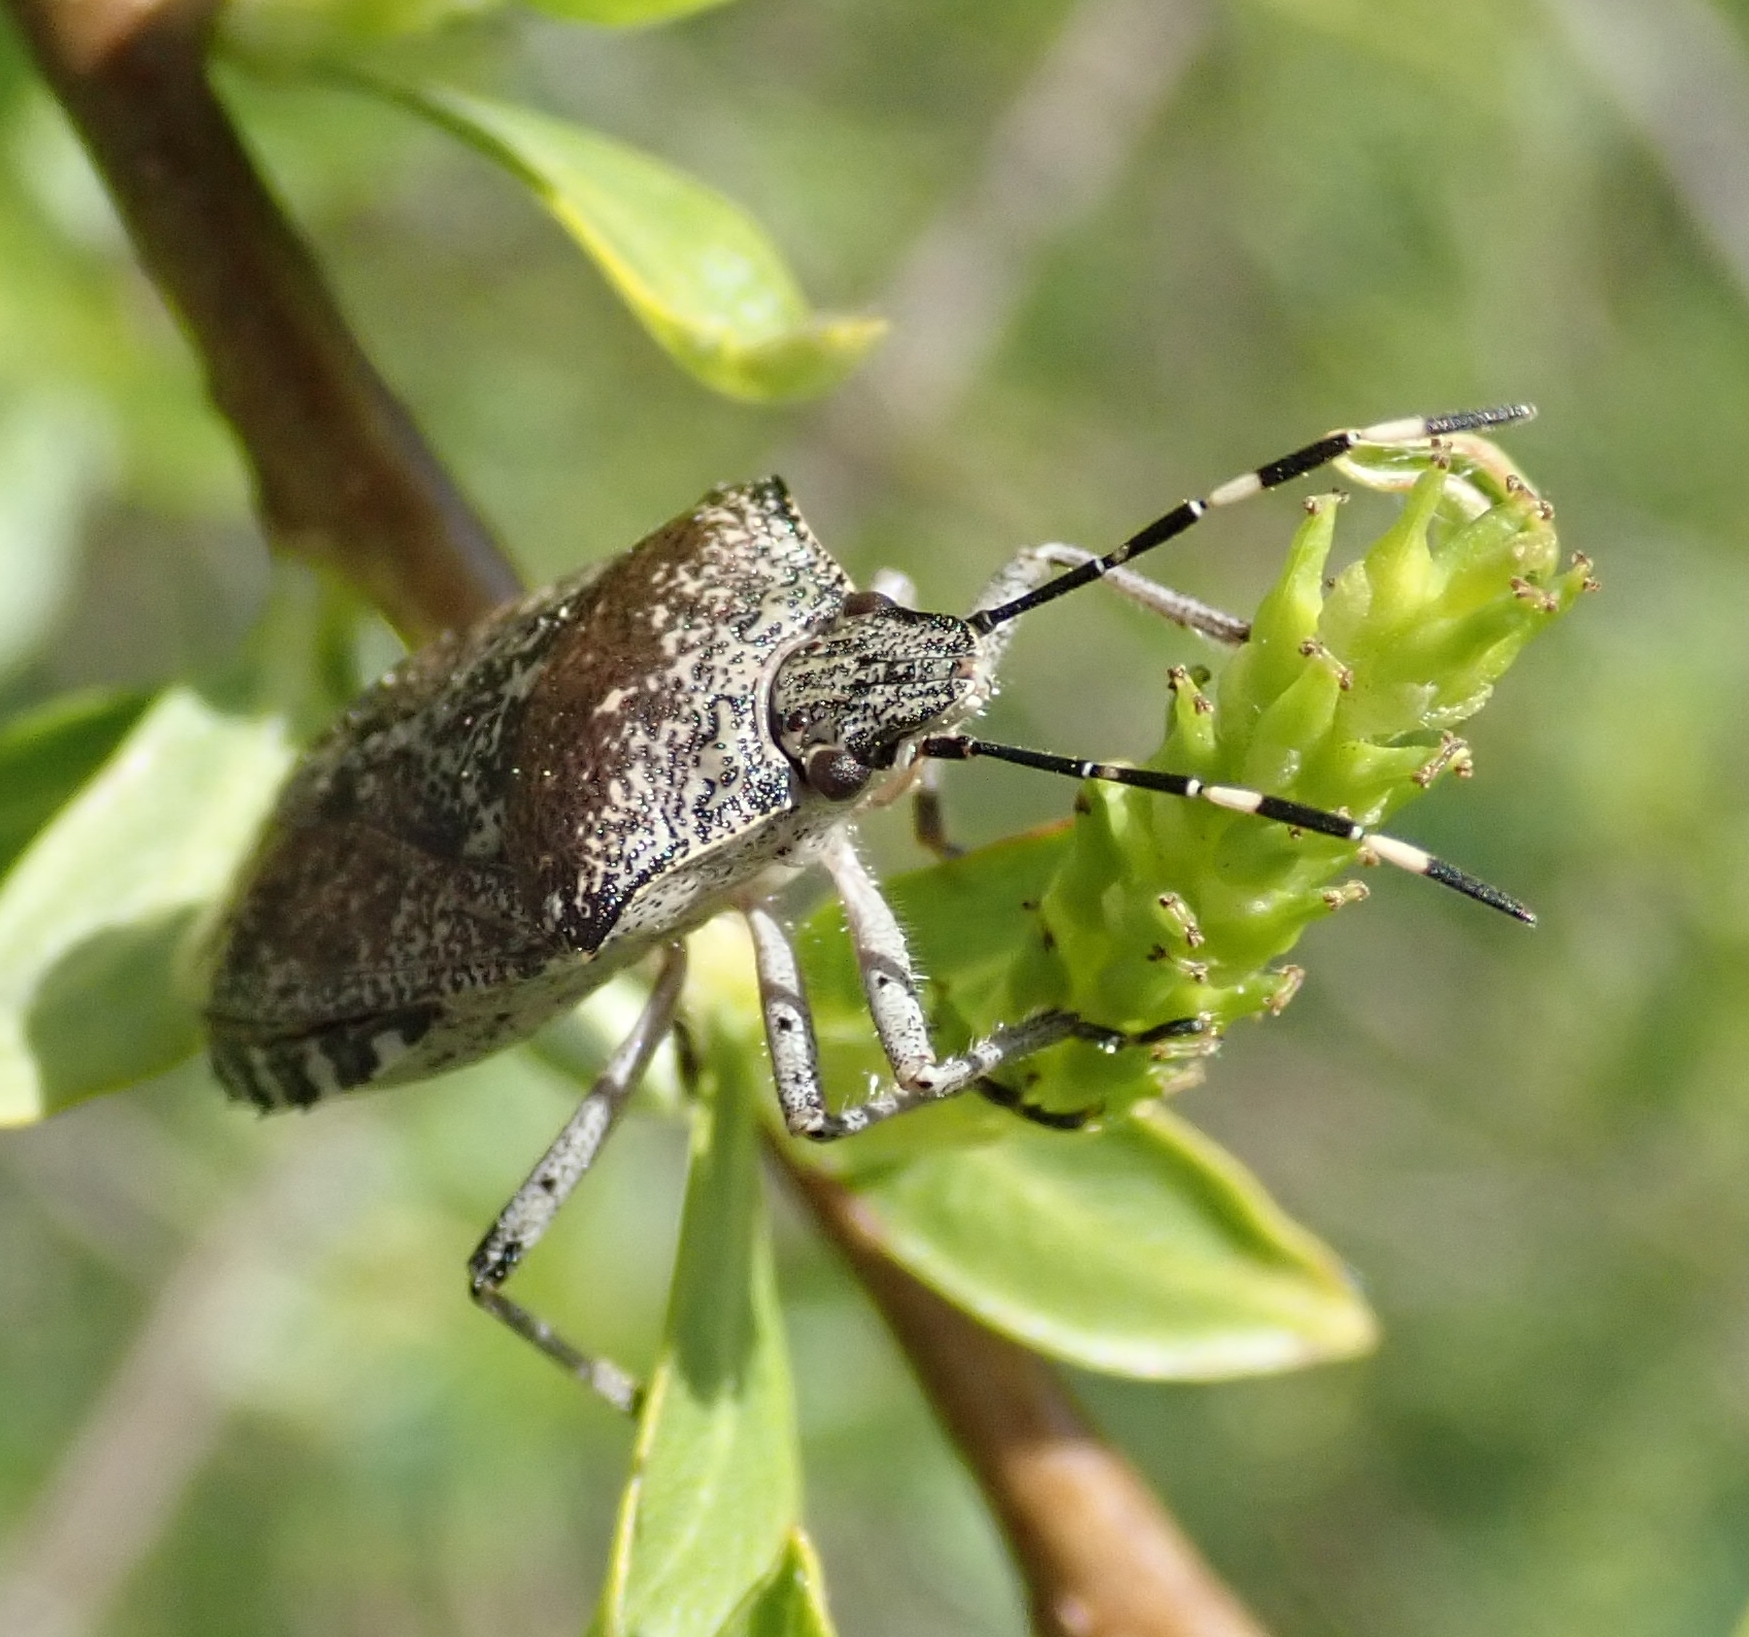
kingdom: Animalia
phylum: Arthropoda
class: Insecta
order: Hemiptera
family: Pentatomidae
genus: Rhaphigaster
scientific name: Rhaphigaster nebulosa
